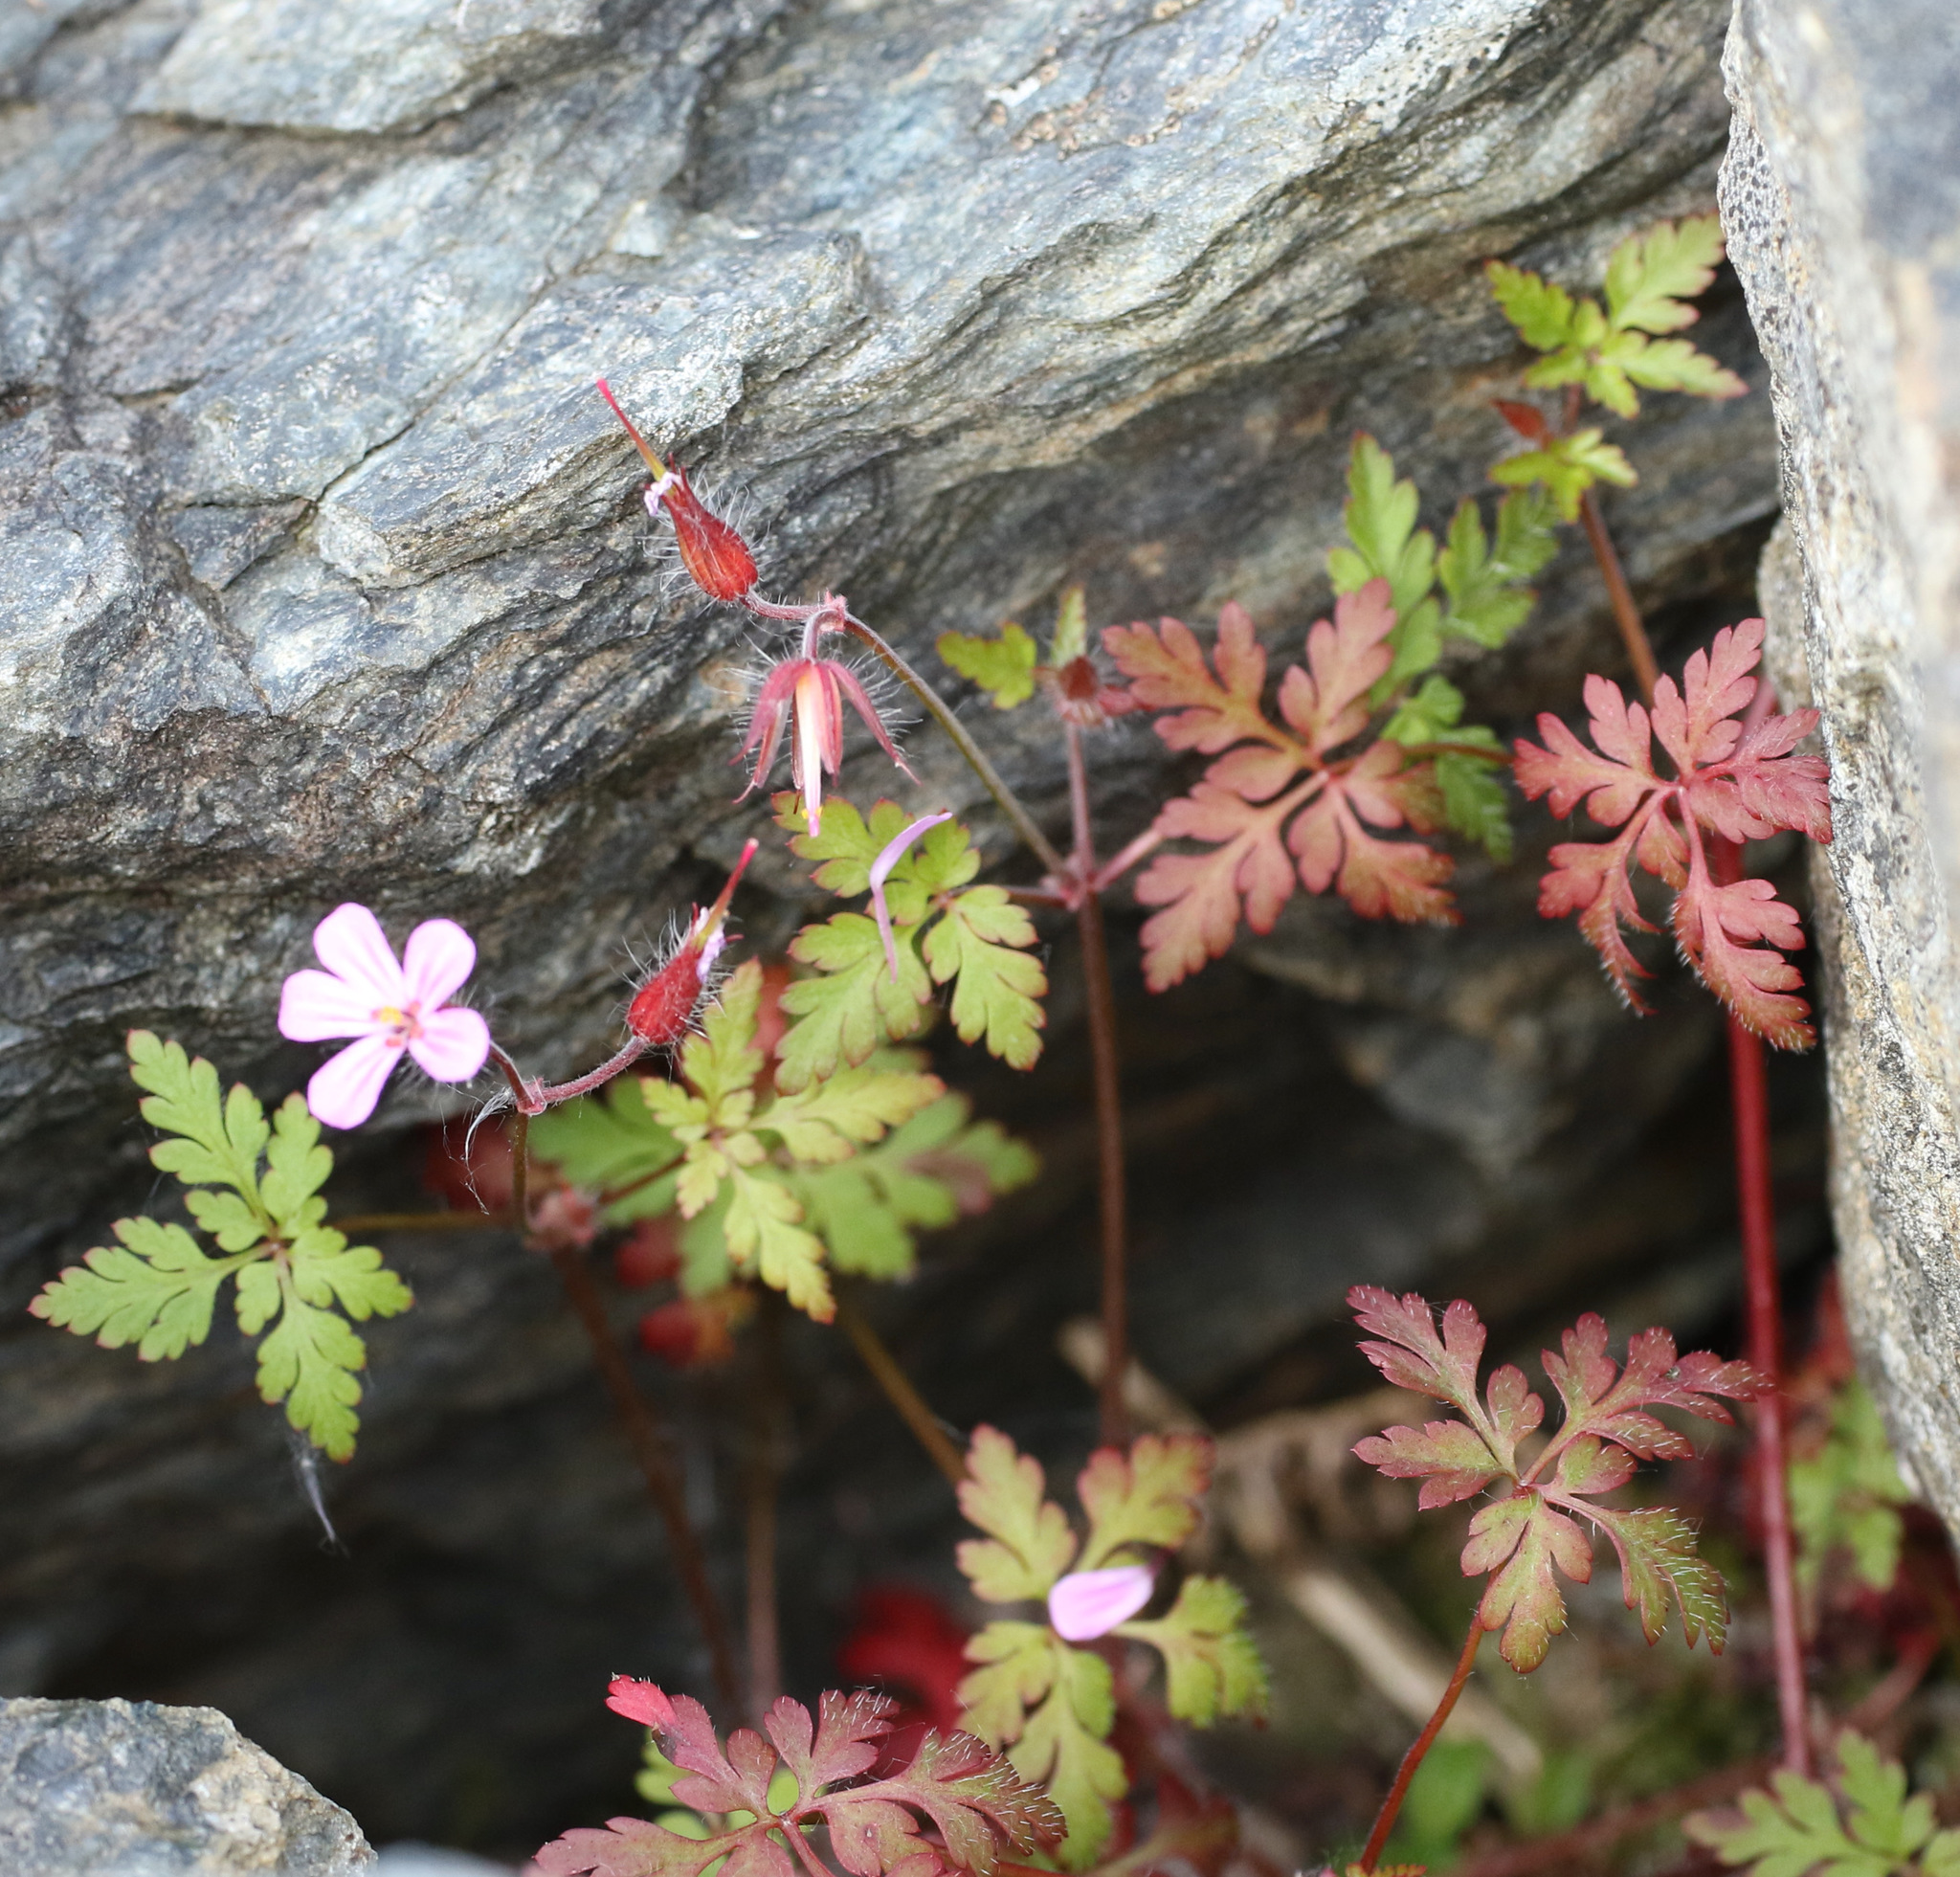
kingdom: Plantae
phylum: Tracheophyta
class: Magnoliopsida
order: Geraniales
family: Geraniaceae
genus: Geranium
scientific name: Geranium robertianum
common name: Herb-robert
